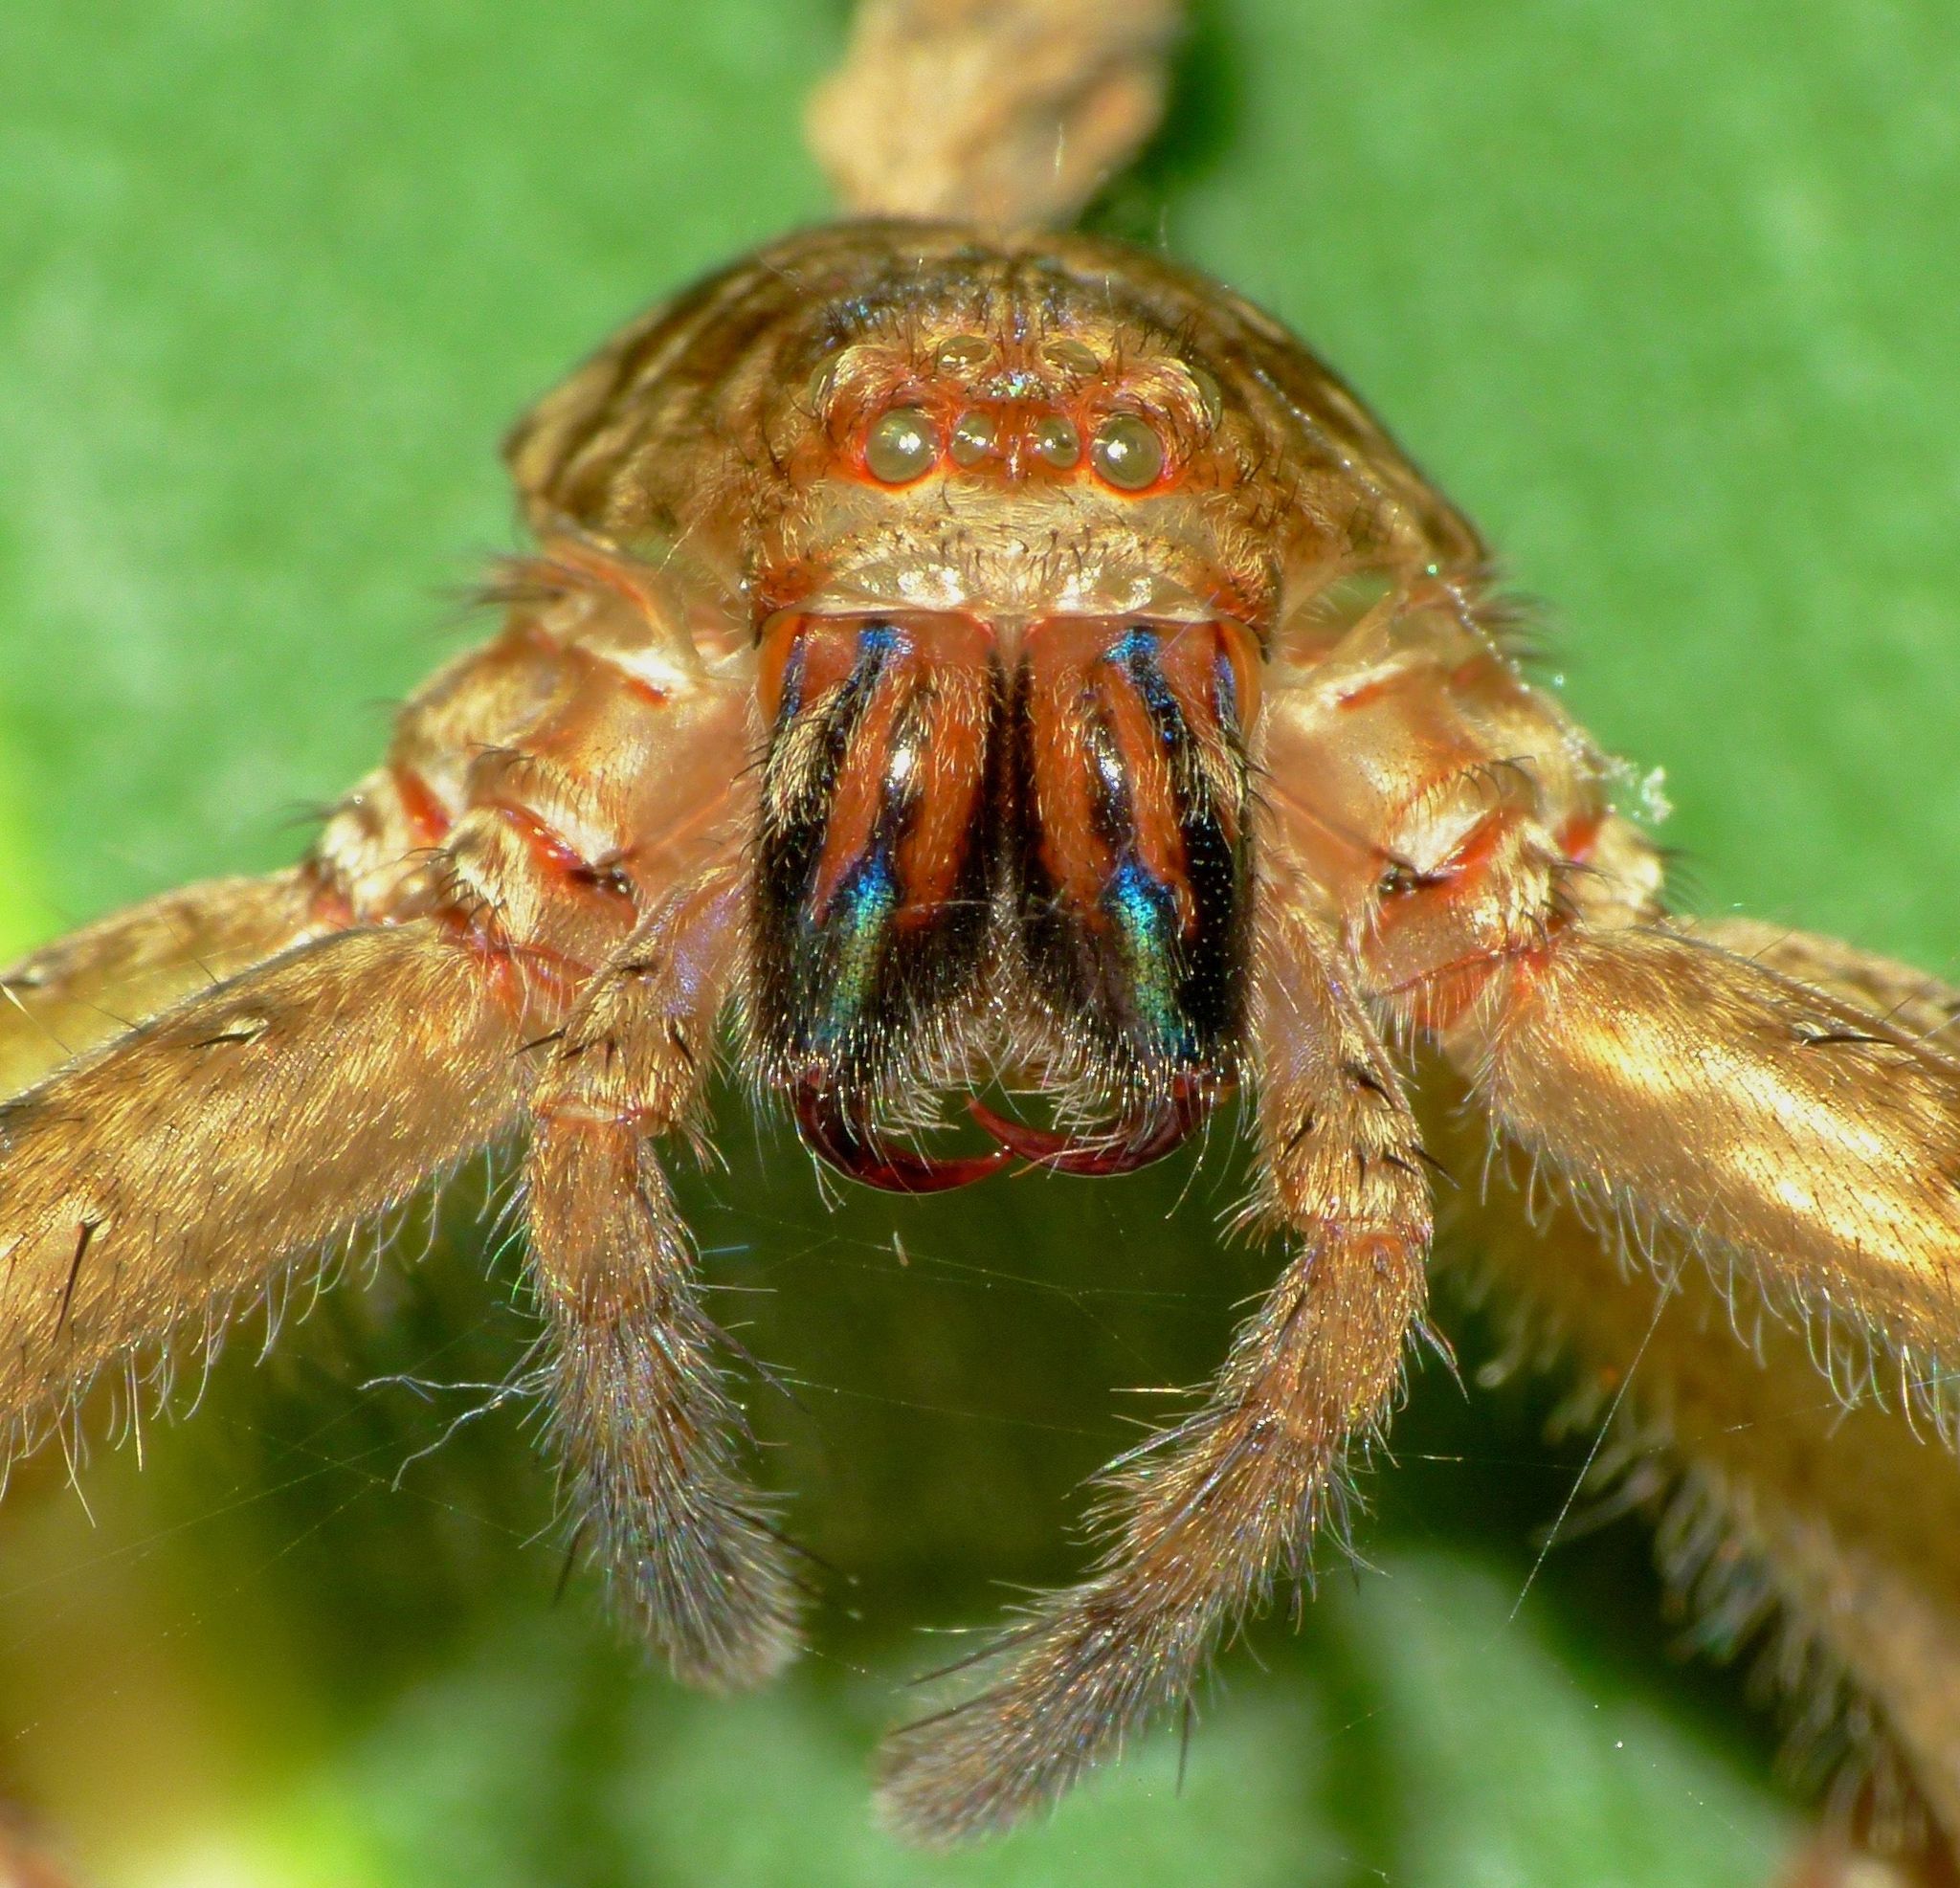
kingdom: Animalia
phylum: Arthropoda
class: Arachnida
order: Araneae
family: Sparassidae
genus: Heteropoda
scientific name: Heteropoda
